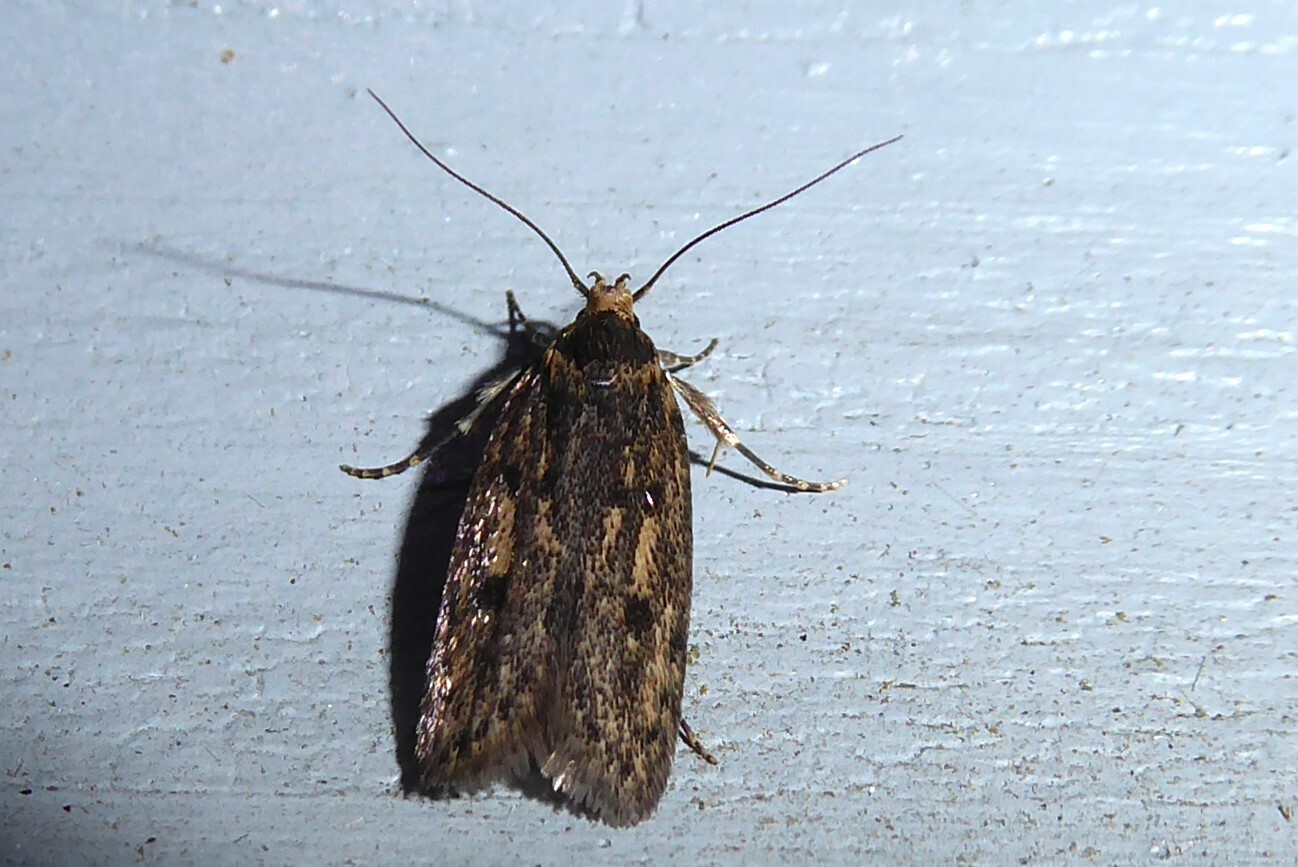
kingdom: Animalia
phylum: Arthropoda
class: Insecta
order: Lepidoptera
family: Oecophoridae
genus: Hofmannophila
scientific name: Hofmannophila pseudospretella
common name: Brown house moth
